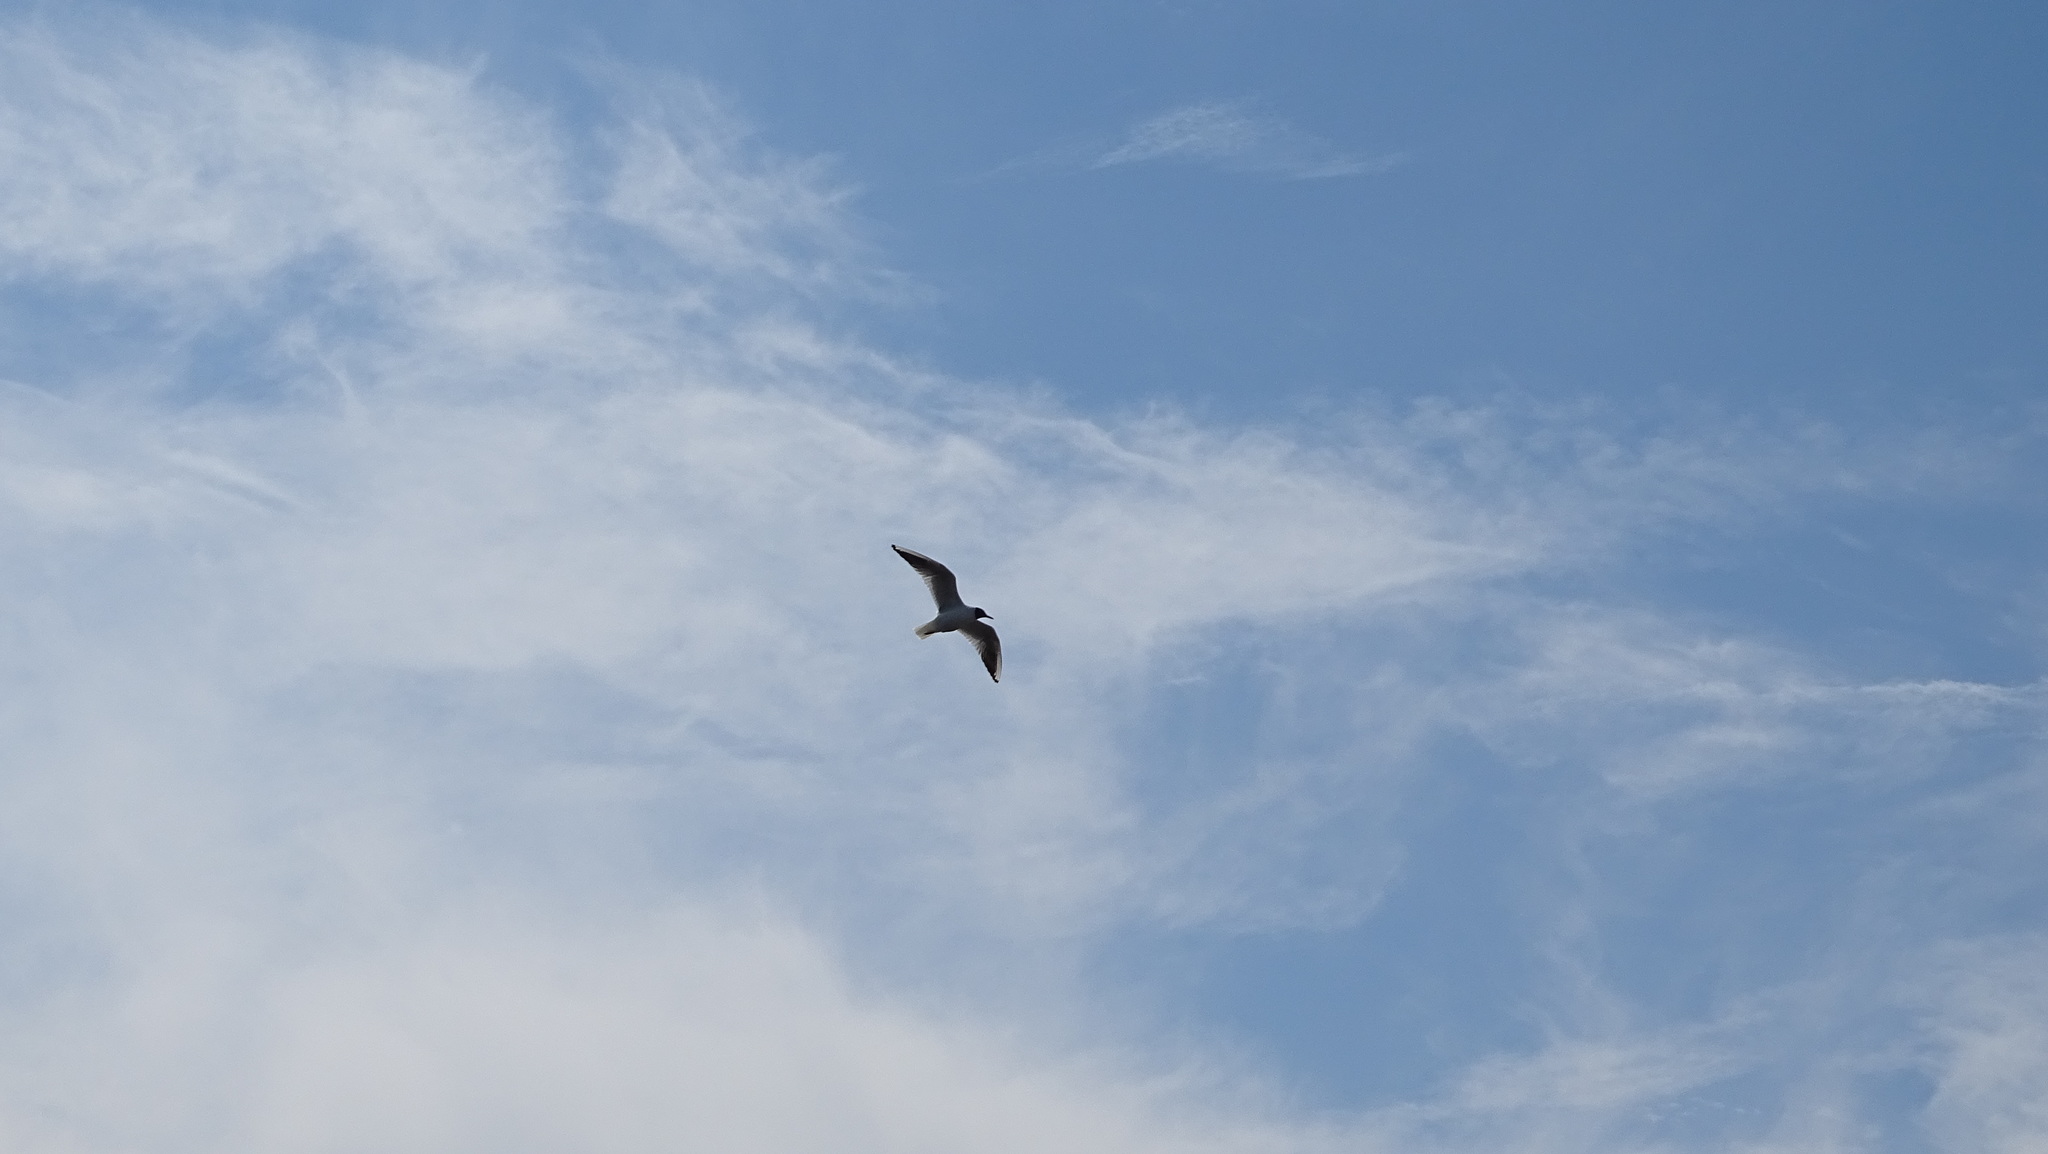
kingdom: Animalia
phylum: Chordata
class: Aves
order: Charadriiformes
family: Laridae
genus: Chroicocephalus
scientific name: Chroicocephalus ridibundus
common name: Black-headed gull
